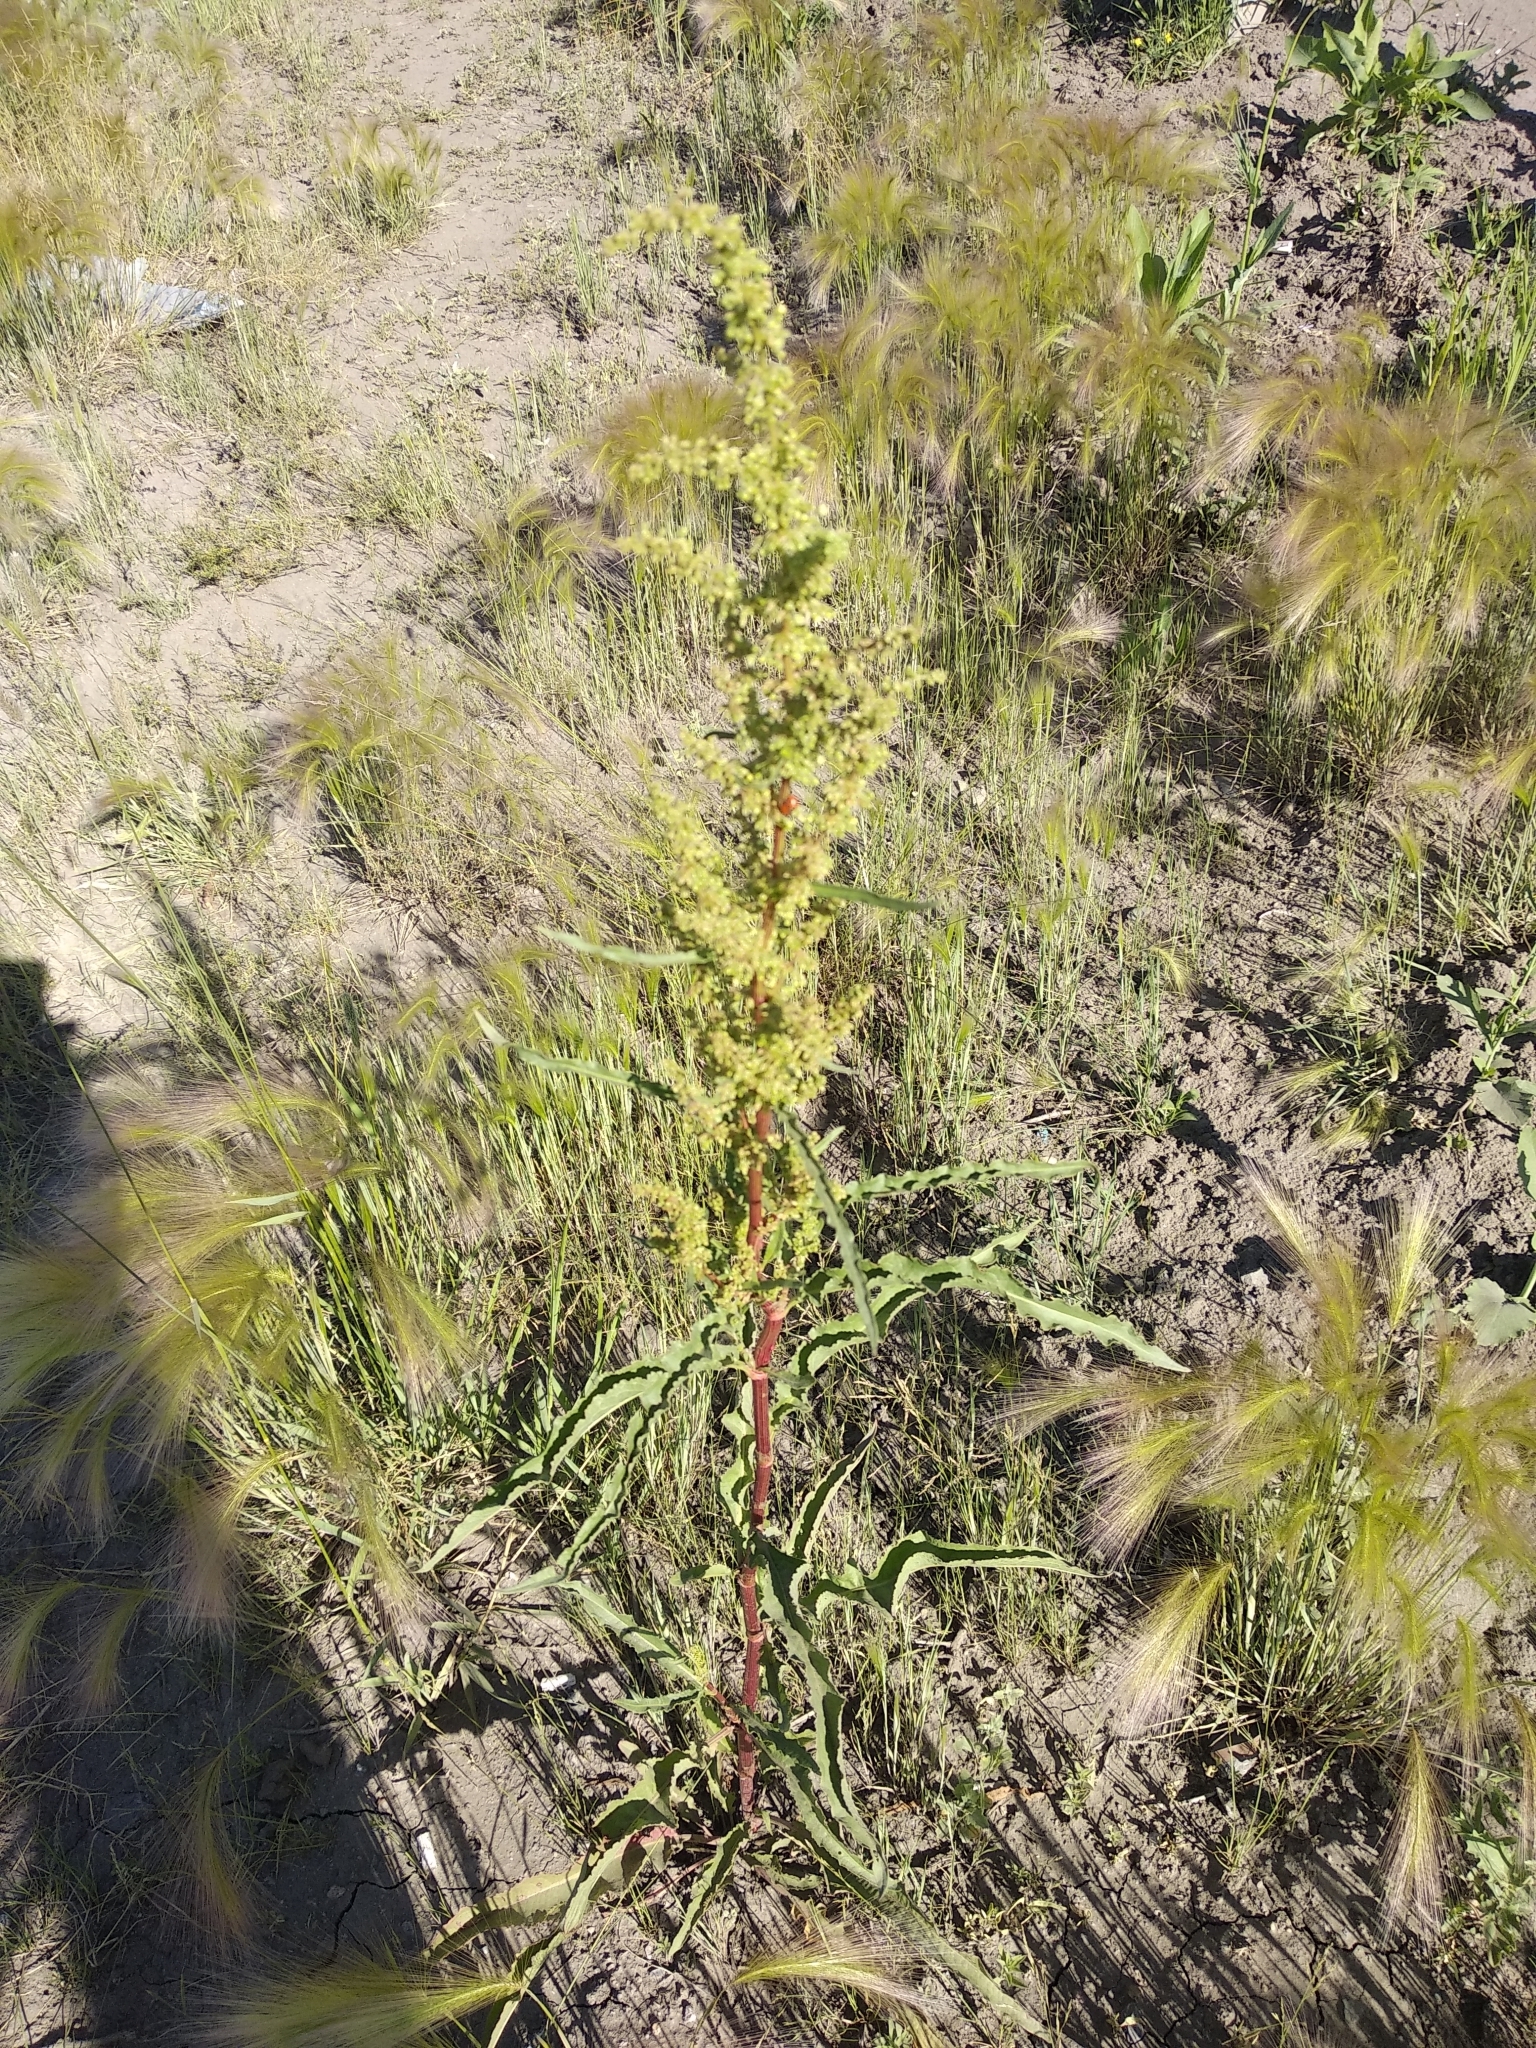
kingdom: Plantae
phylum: Tracheophyta
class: Magnoliopsida
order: Caryophyllales
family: Polygonaceae
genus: Rumex
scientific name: Rumex pseudonatronatus
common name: Field dock
